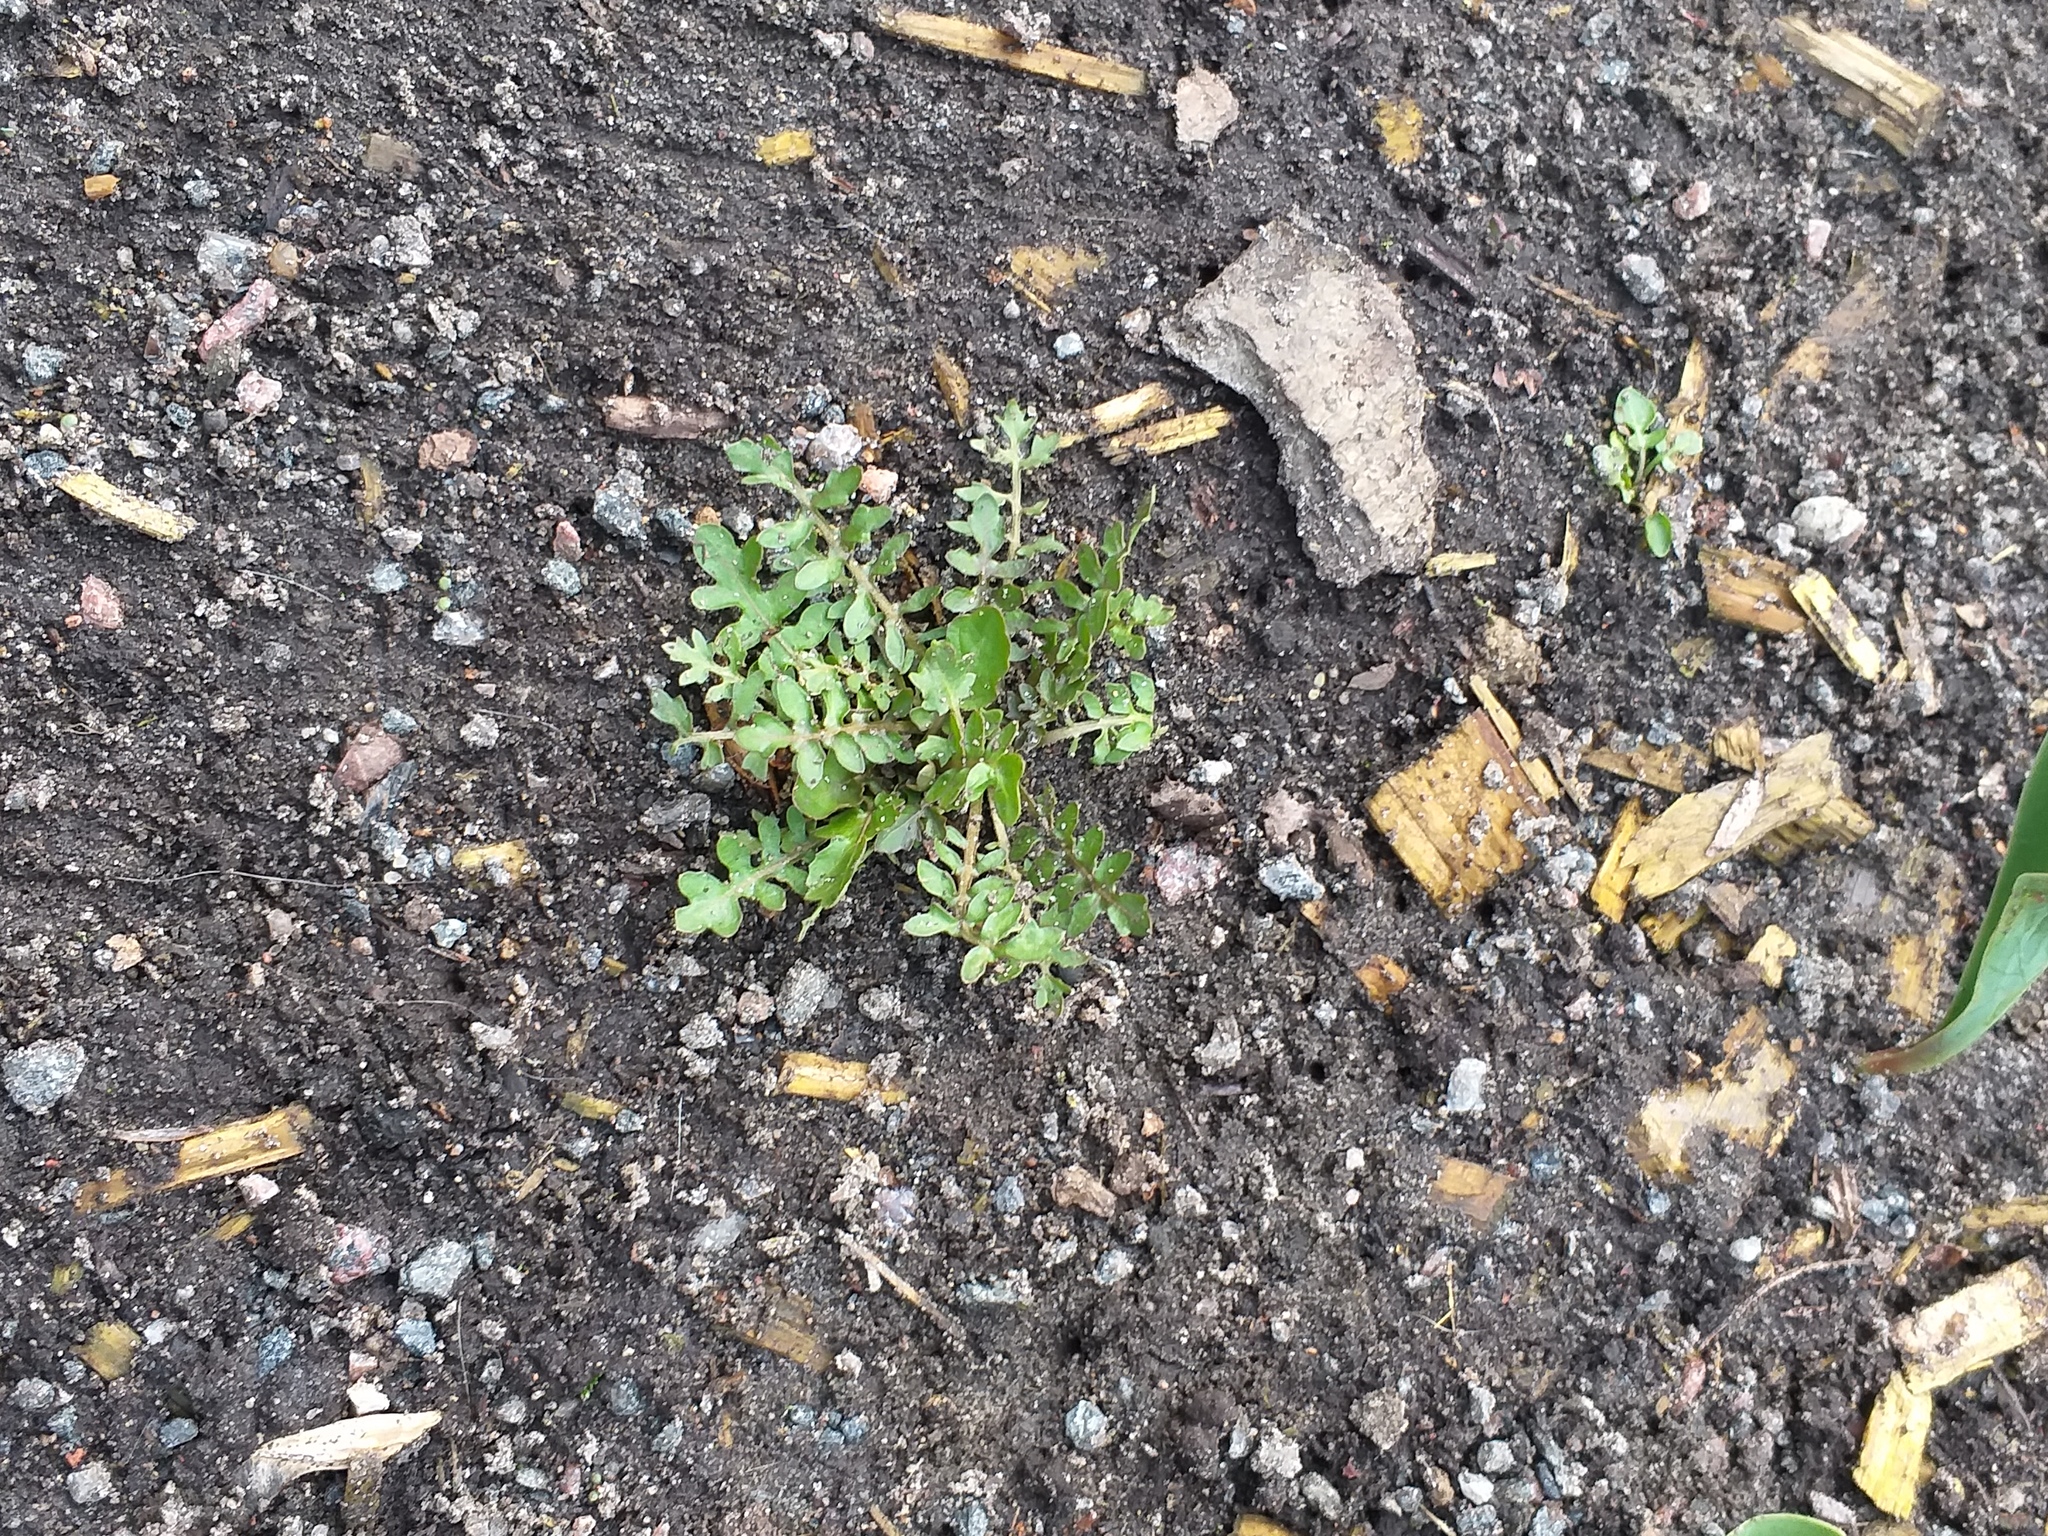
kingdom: Plantae
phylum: Tracheophyta
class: Magnoliopsida
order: Brassicales
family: Brassicaceae
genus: Rorippa
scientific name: Rorippa palustris
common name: Marsh yellow-cress
